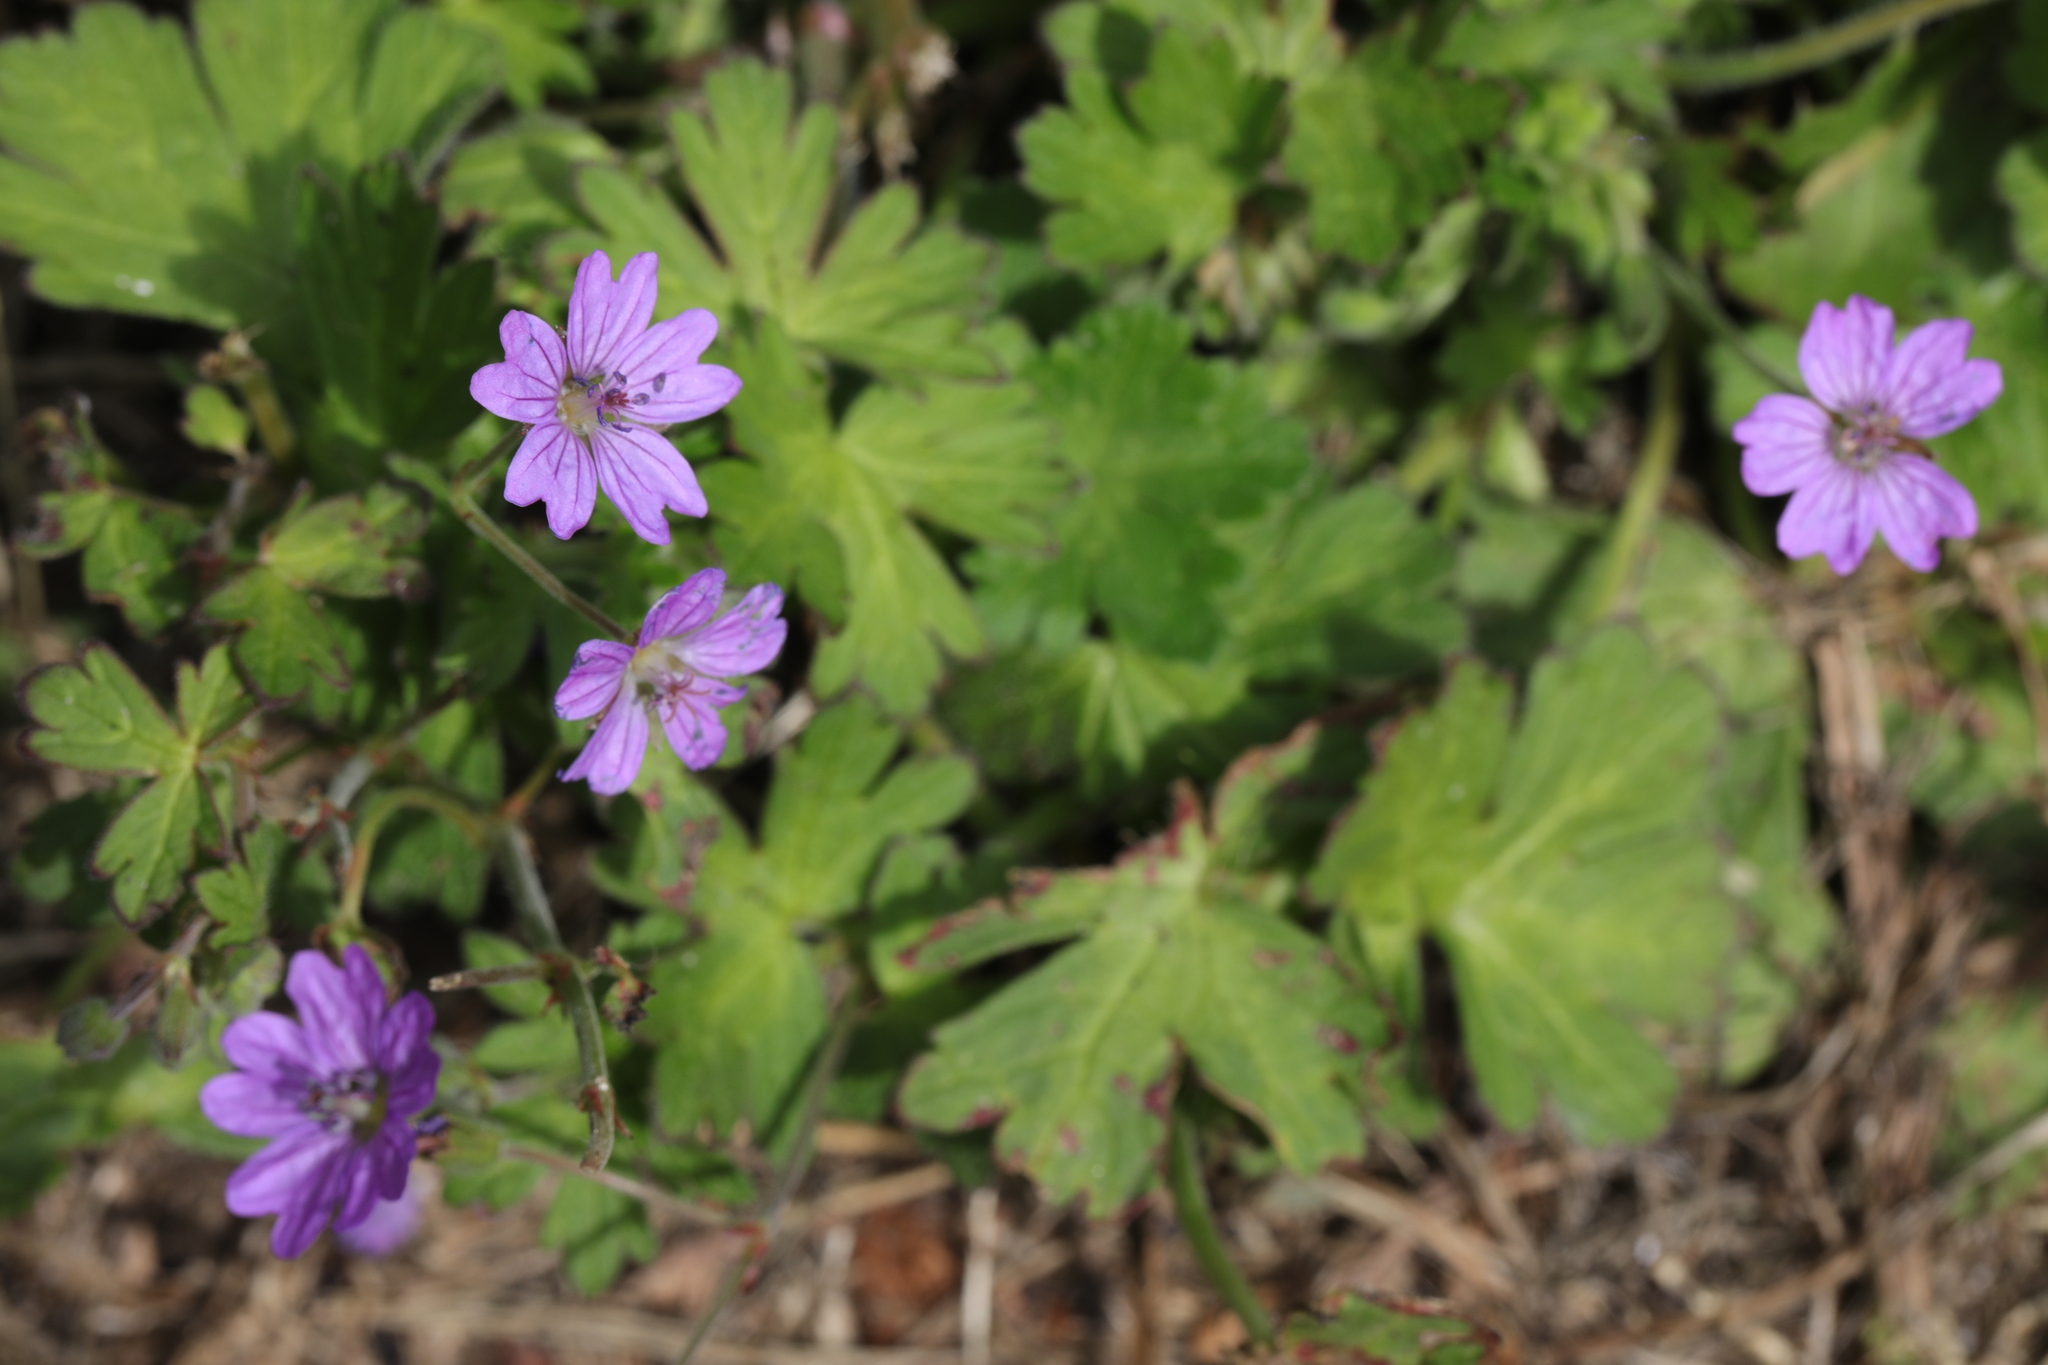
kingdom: Plantae
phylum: Tracheophyta
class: Magnoliopsida
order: Geraniales
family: Geraniaceae
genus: Geranium
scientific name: Geranium pyrenaicum
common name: Hedgerow crane's-bill
